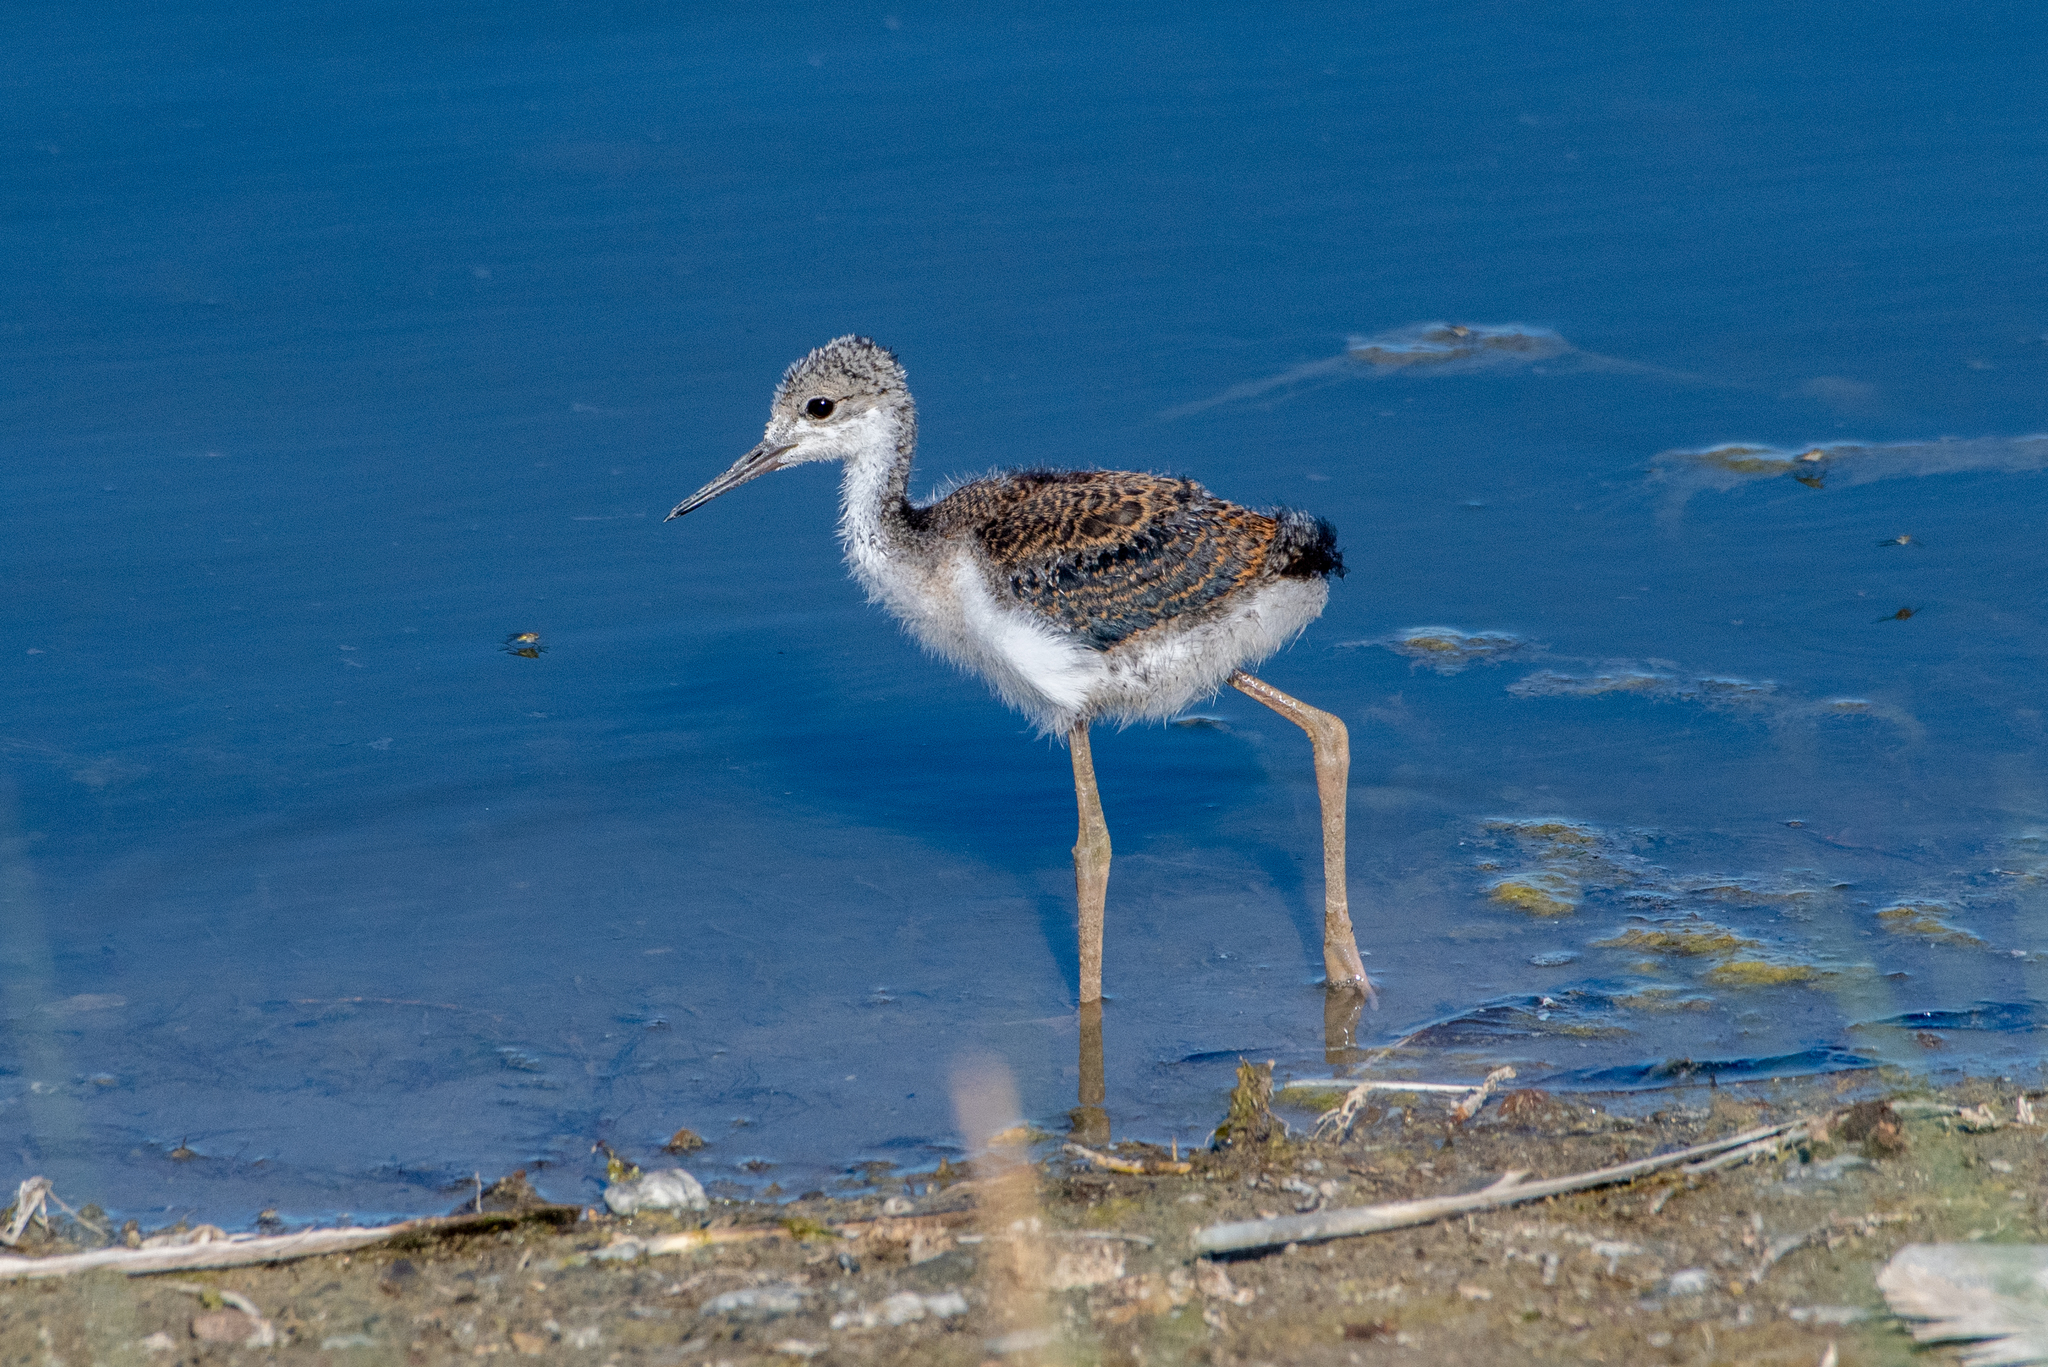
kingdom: Animalia
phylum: Chordata
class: Aves
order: Charadriiformes
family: Recurvirostridae
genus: Himantopus
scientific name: Himantopus mexicanus
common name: Black-necked stilt
